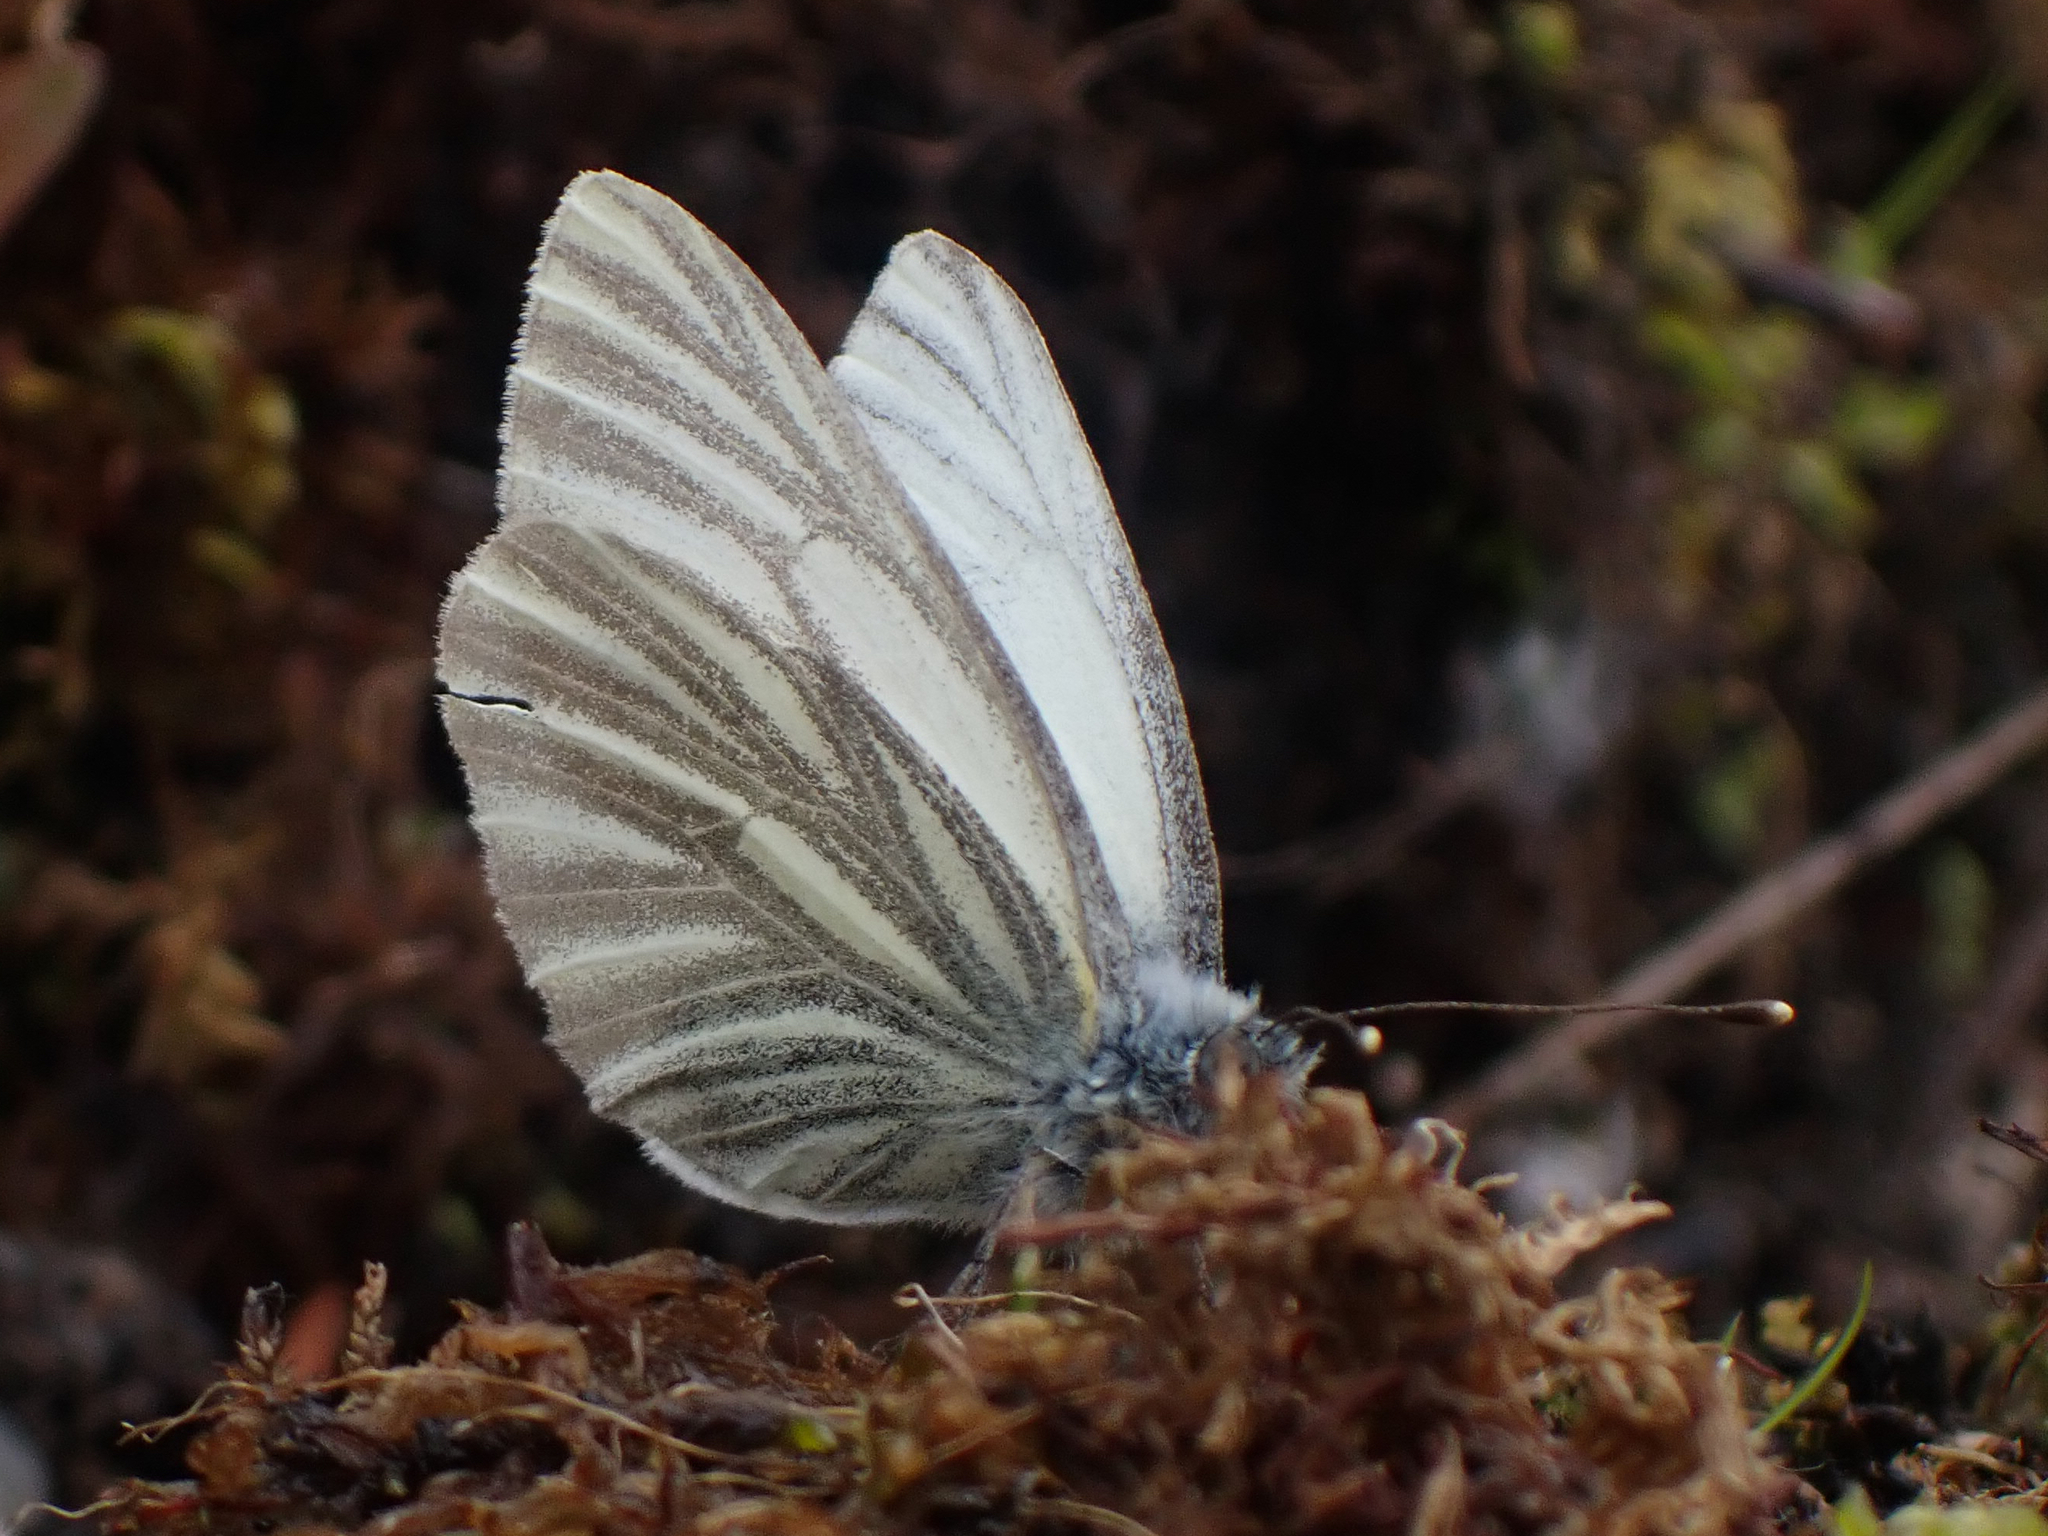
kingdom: Animalia
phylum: Arthropoda
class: Insecta
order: Lepidoptera
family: Pieridae
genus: Pieris
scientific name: Pieris marginalis
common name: Margined white
